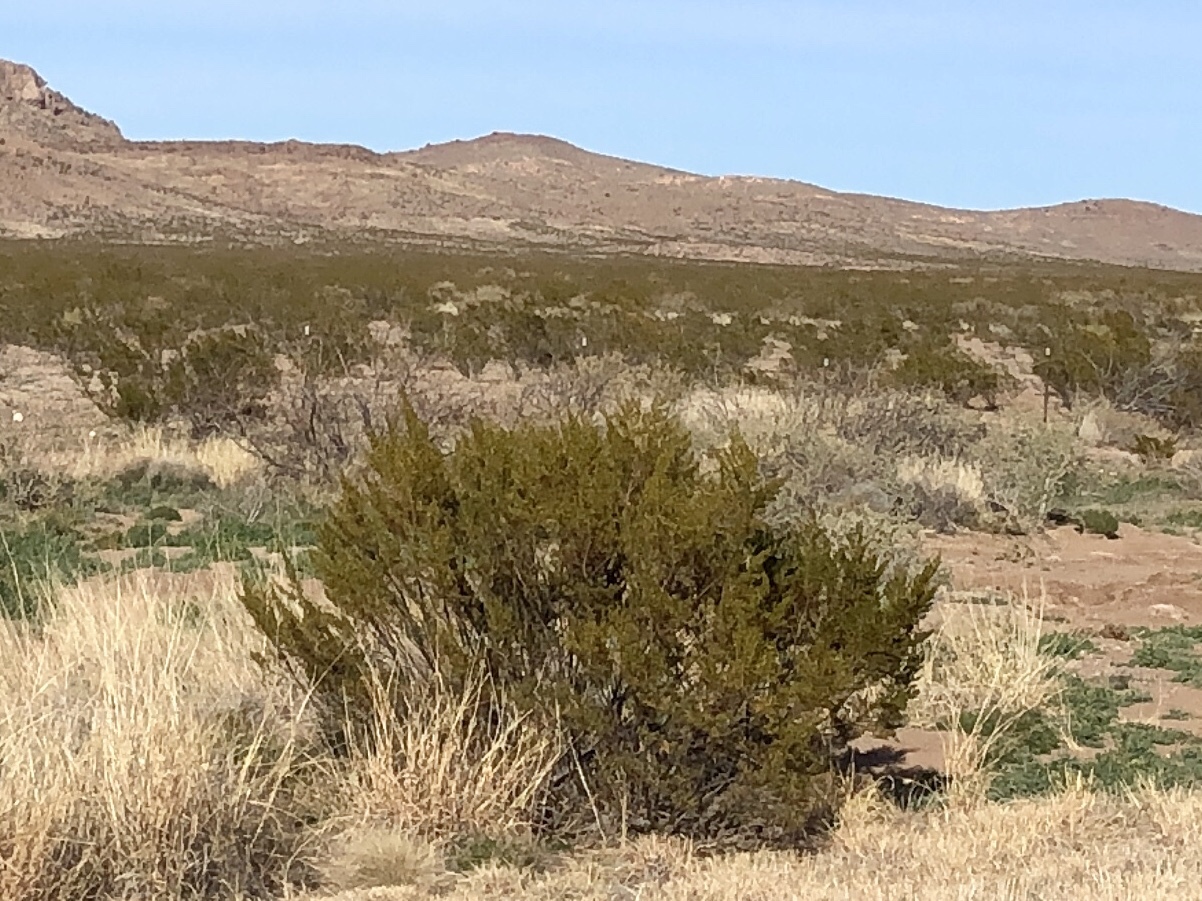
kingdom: Plantae
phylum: Tracheophyta
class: Magnoliopsida
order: Zygophyllales
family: Zygophyllaceae
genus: Larrea
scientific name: Larrea tridentata
